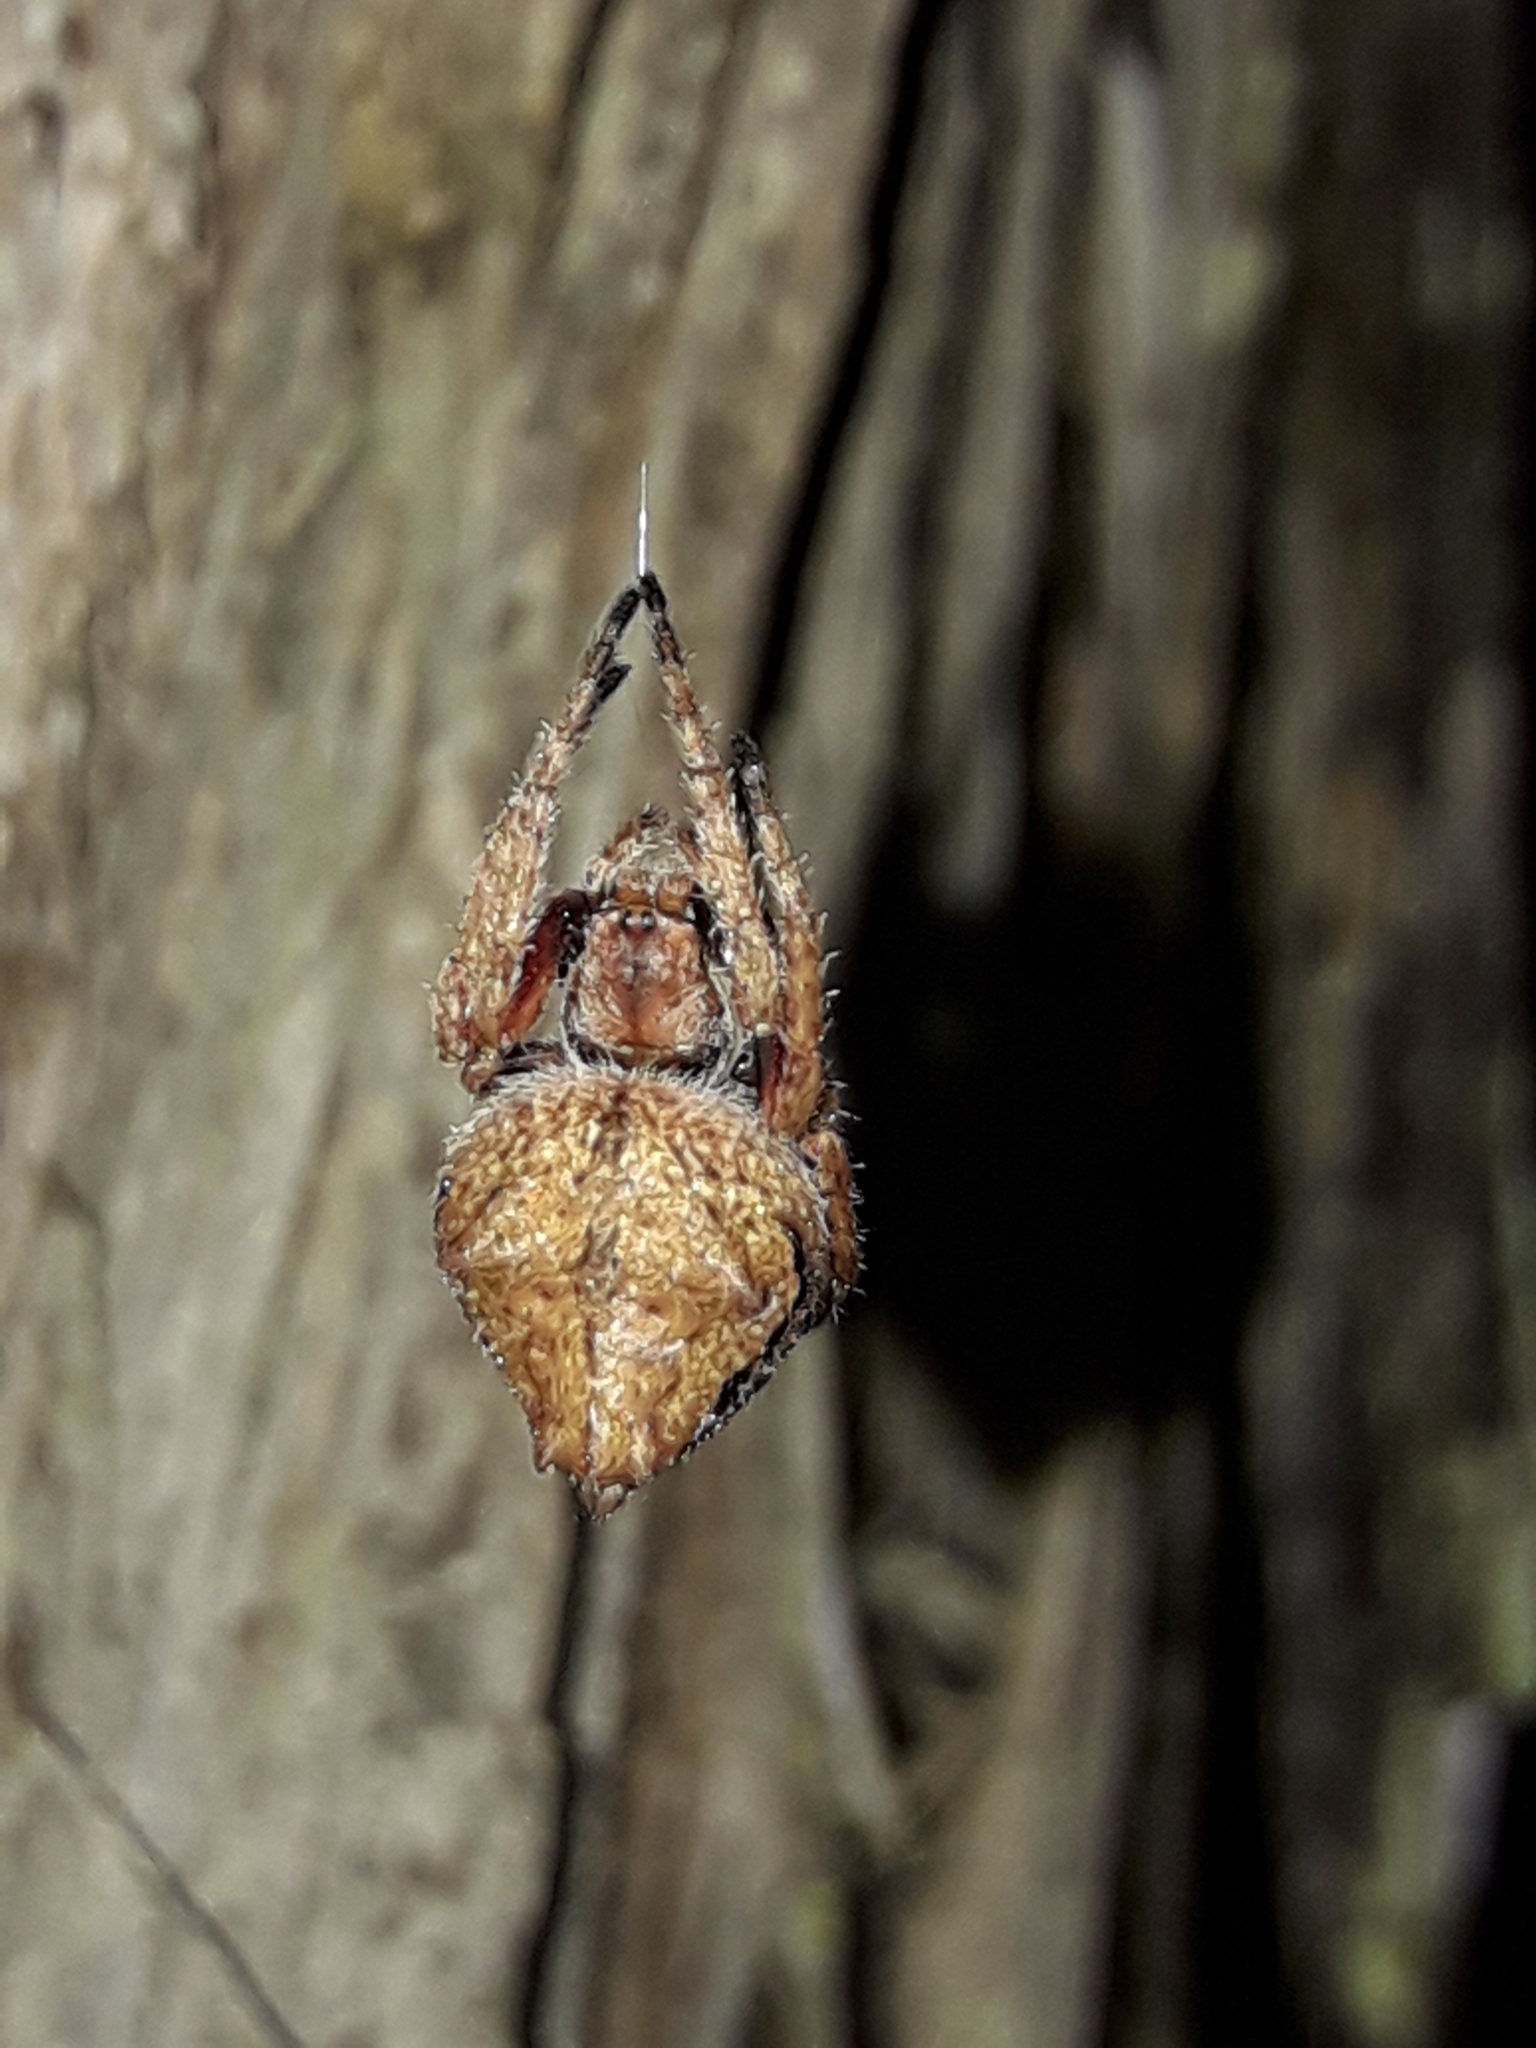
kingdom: Animalia
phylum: Arthropoda
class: Arachnida
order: Araneae
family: Araneidae
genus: Eriophora
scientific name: Eriophora pustulosa
